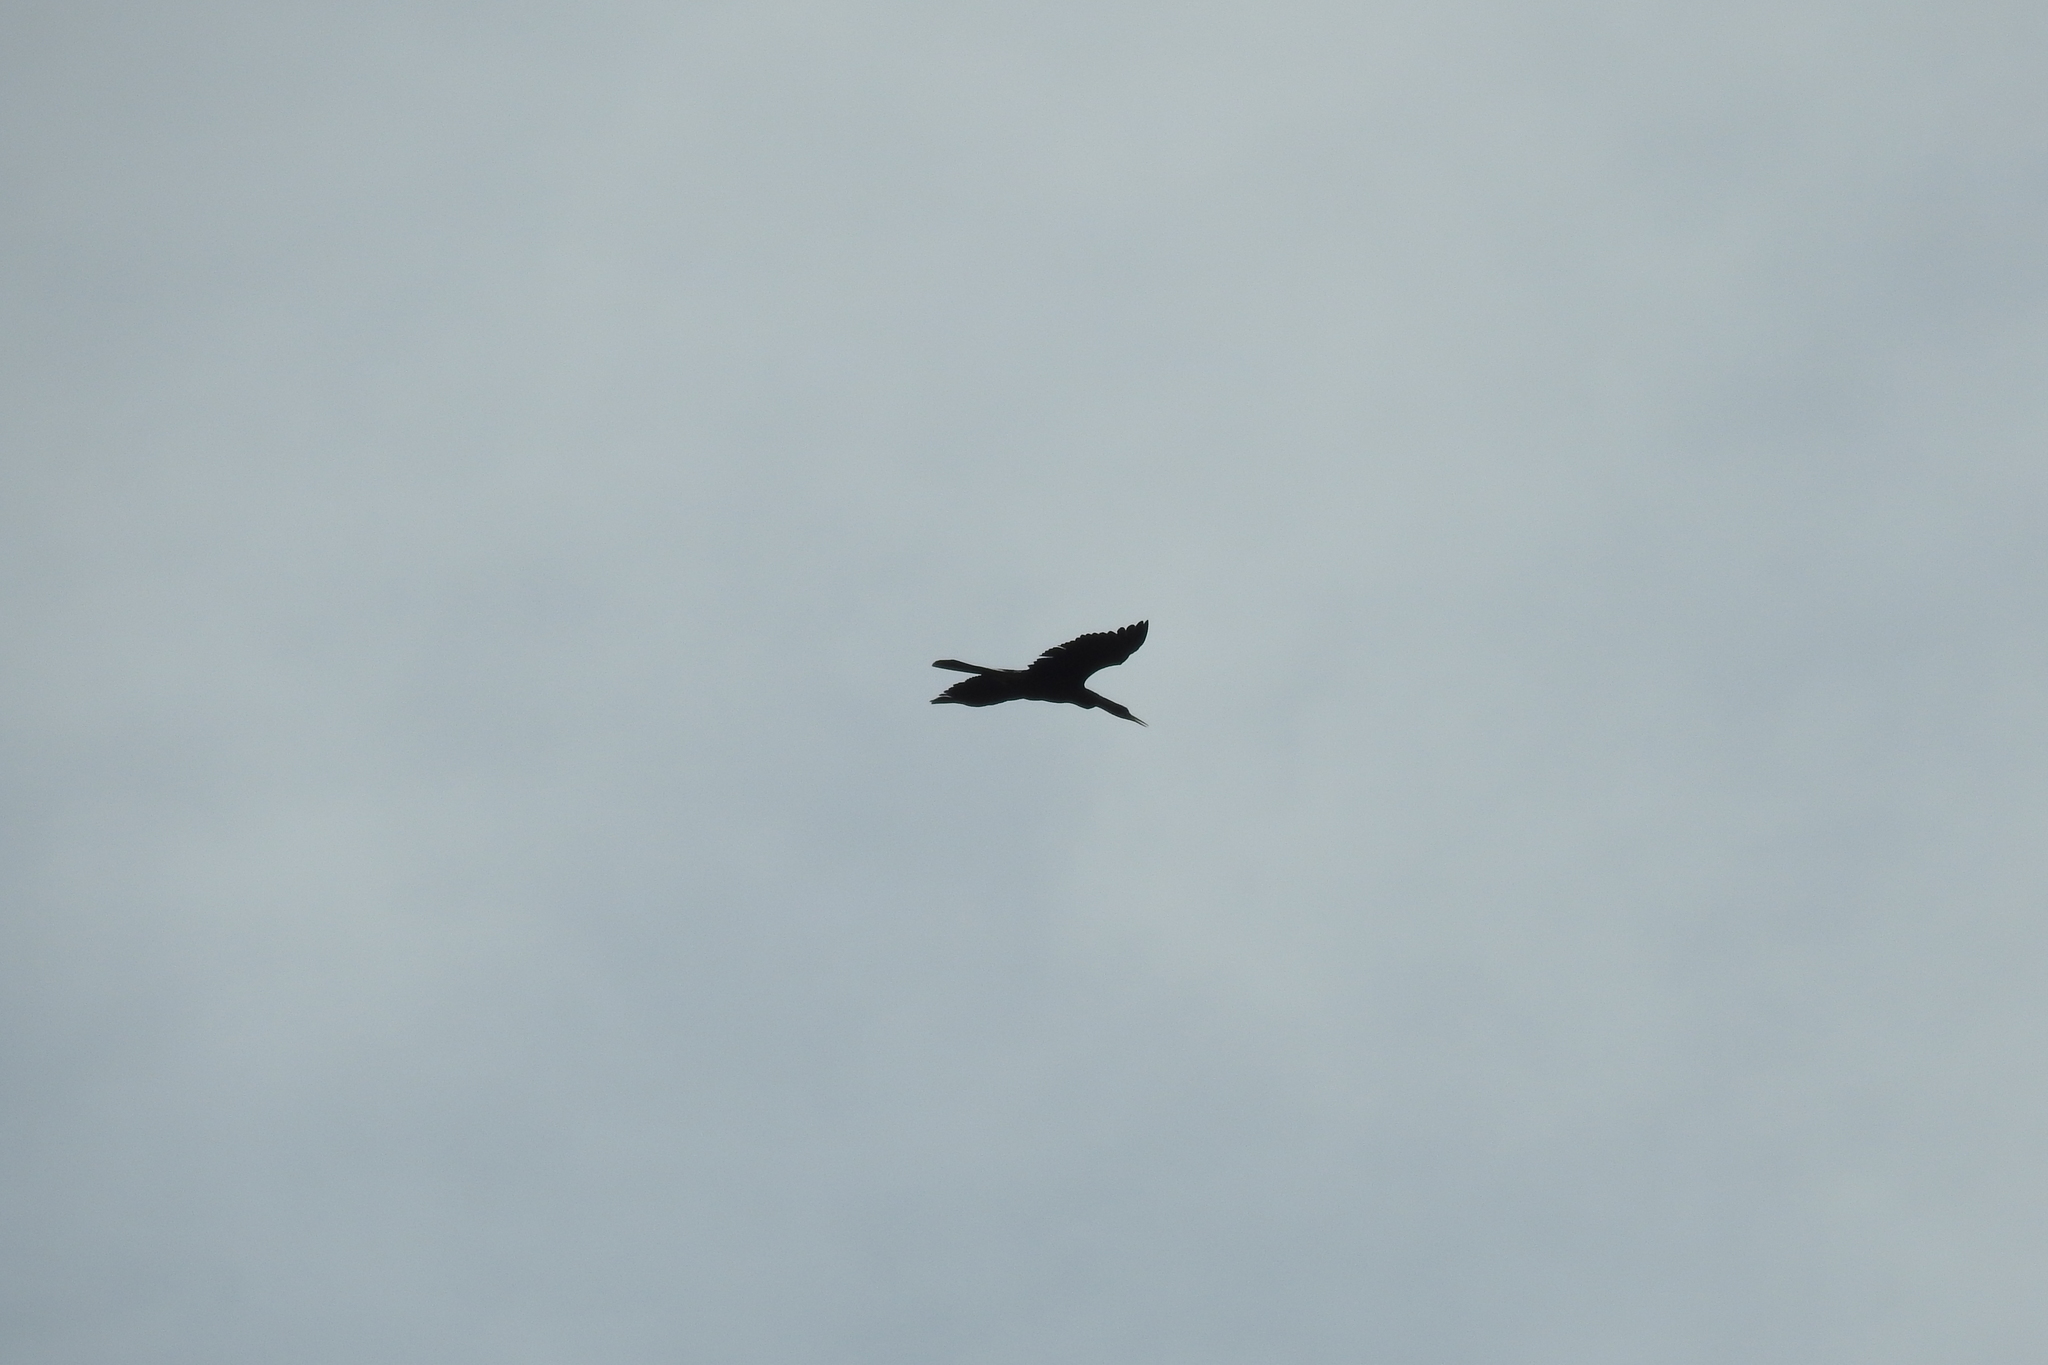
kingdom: Animalia
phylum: Chordata
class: Aves
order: Suliformes
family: Anhingidae
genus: Anhinga
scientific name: Anhinga anhinga
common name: Anhinga
